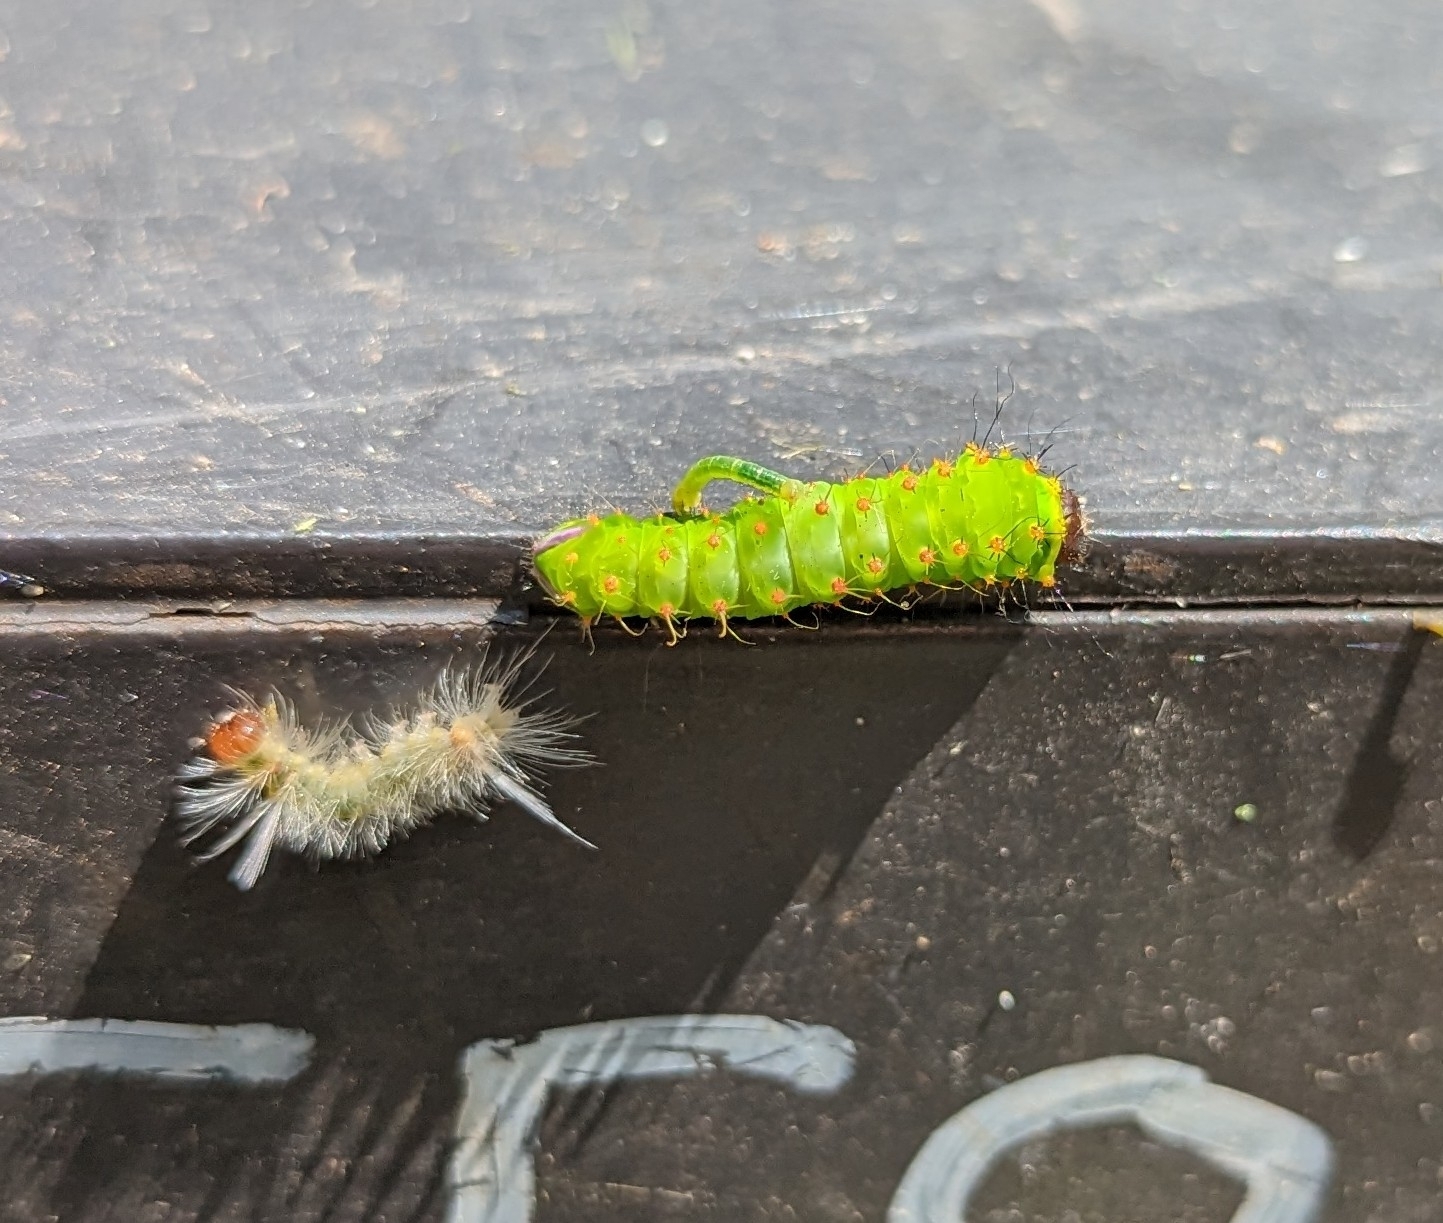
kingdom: Animalia
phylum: Arthropoda
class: Insecta
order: Lepidoptera
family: Saturniidae
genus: Antheraea
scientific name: Antheraea polyphemus
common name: Polyphemus moth
